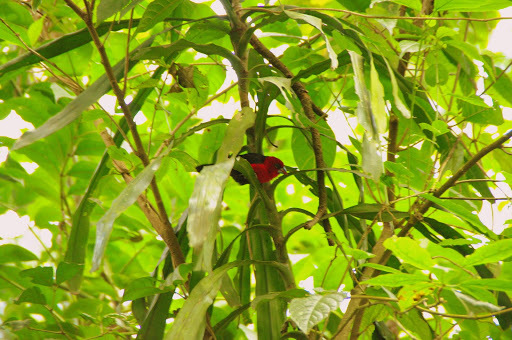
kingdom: Animalia
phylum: Chordata
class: Aves
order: Passeriformes
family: Estrildidae
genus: Spermophaga
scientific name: Spermophaga ruficapilla
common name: Red-headed bluebill
